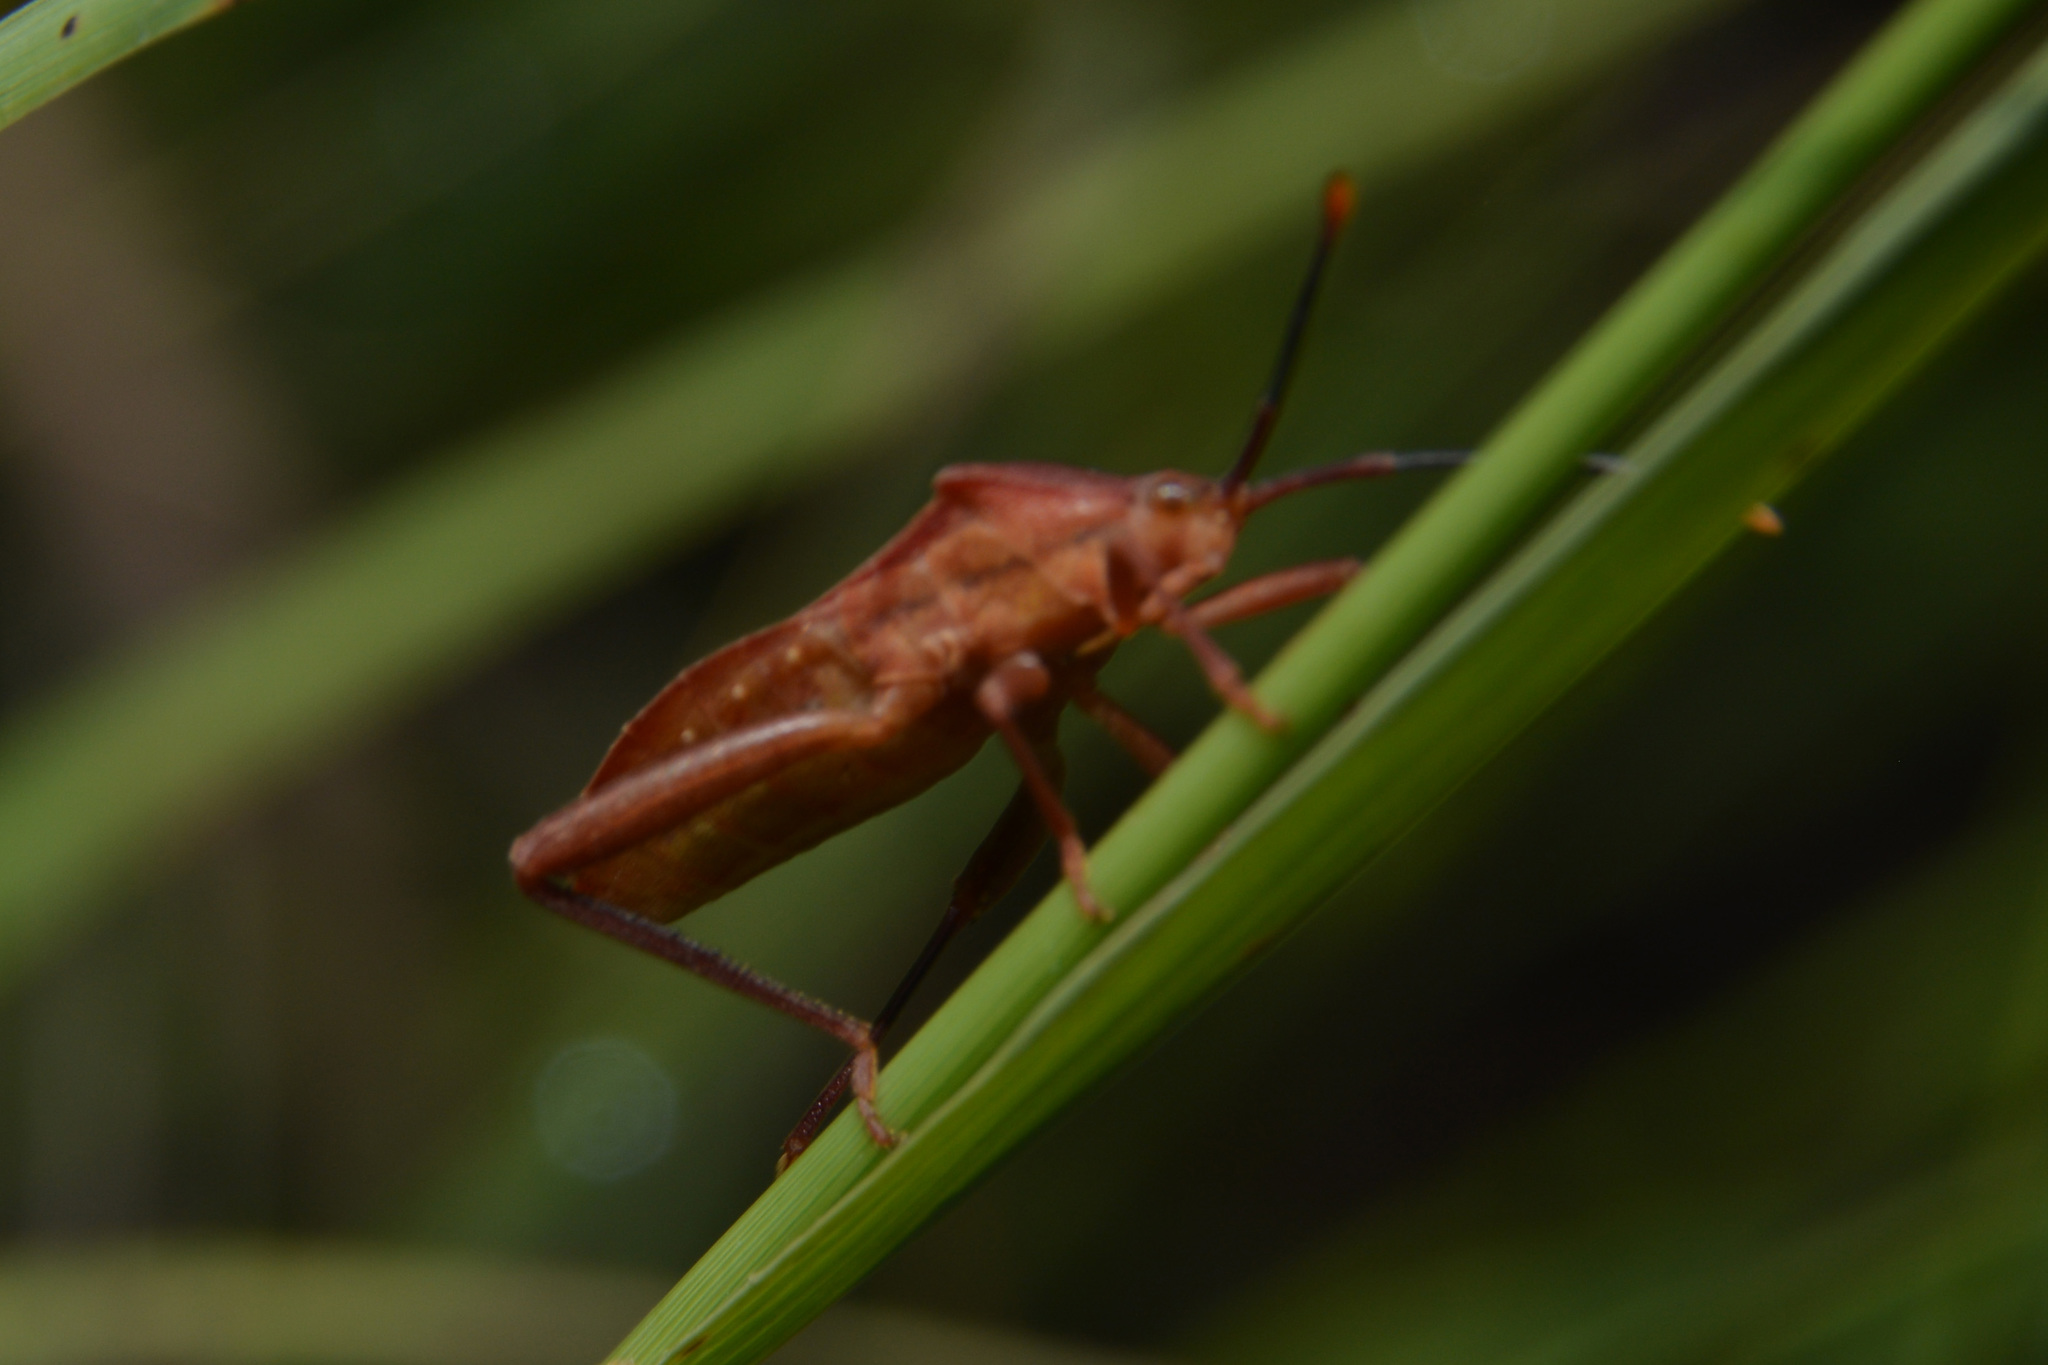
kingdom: Animalia
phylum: Arthropoda
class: Insecta
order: Hemiptera
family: Coreidae
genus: Athaumastus
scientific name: Athaumastus haematicus
